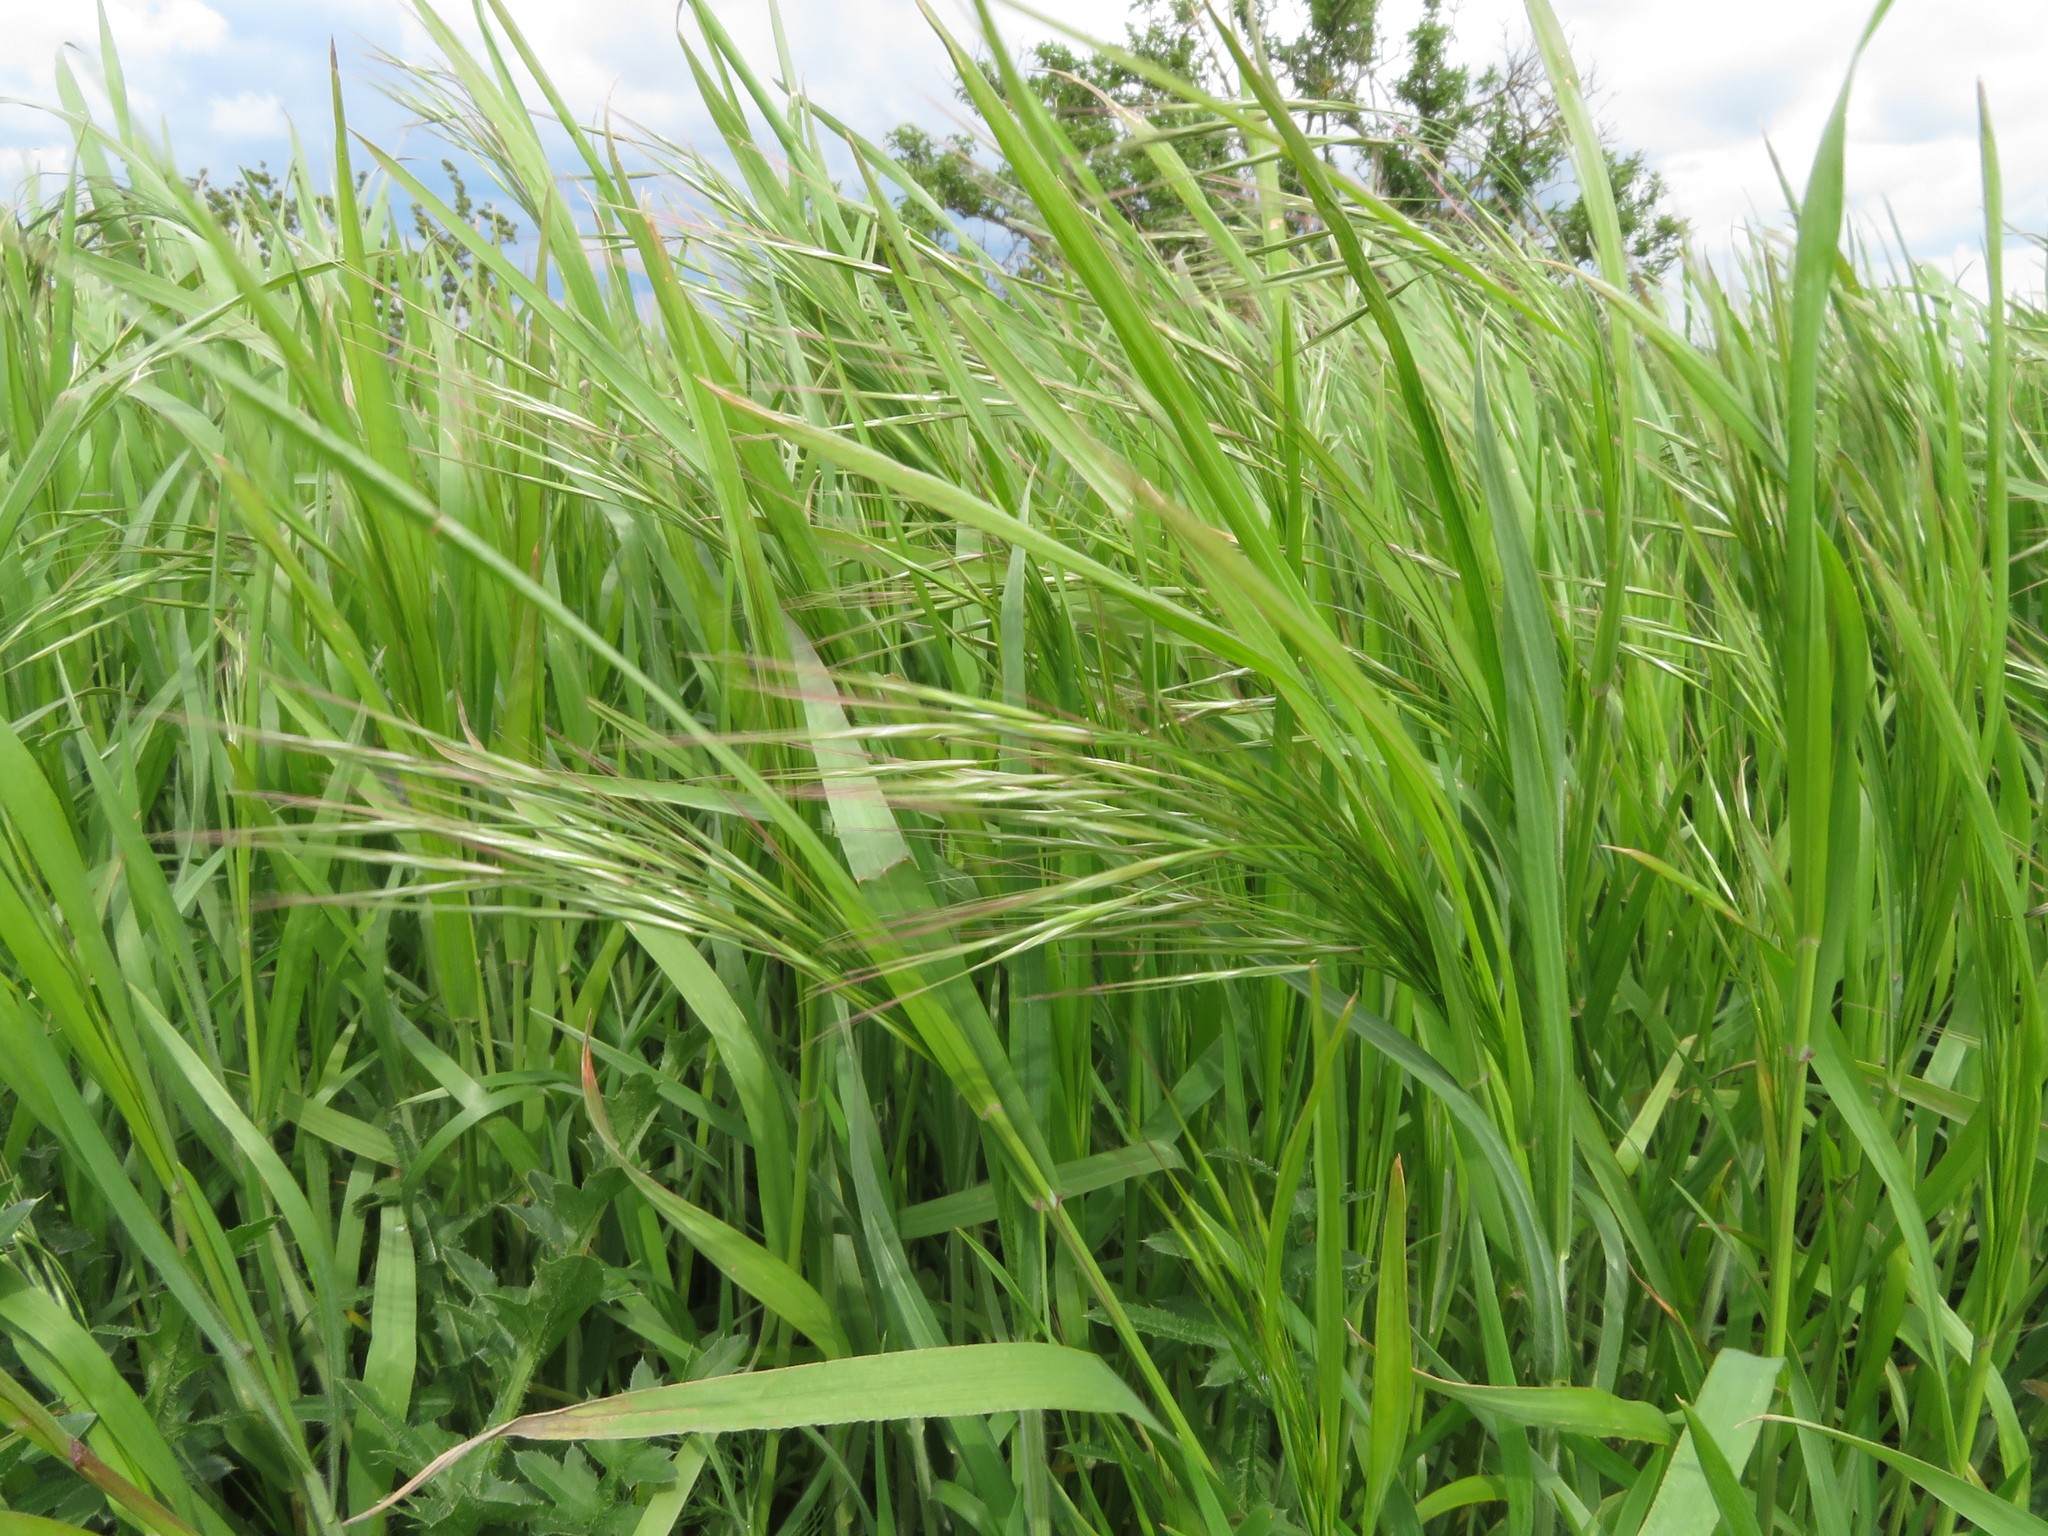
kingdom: Plantae
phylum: Tracheophyta
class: Liliopsida
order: Poales
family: Poaceae
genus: Bromus
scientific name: Bromus sterilis
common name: Poverty brome
